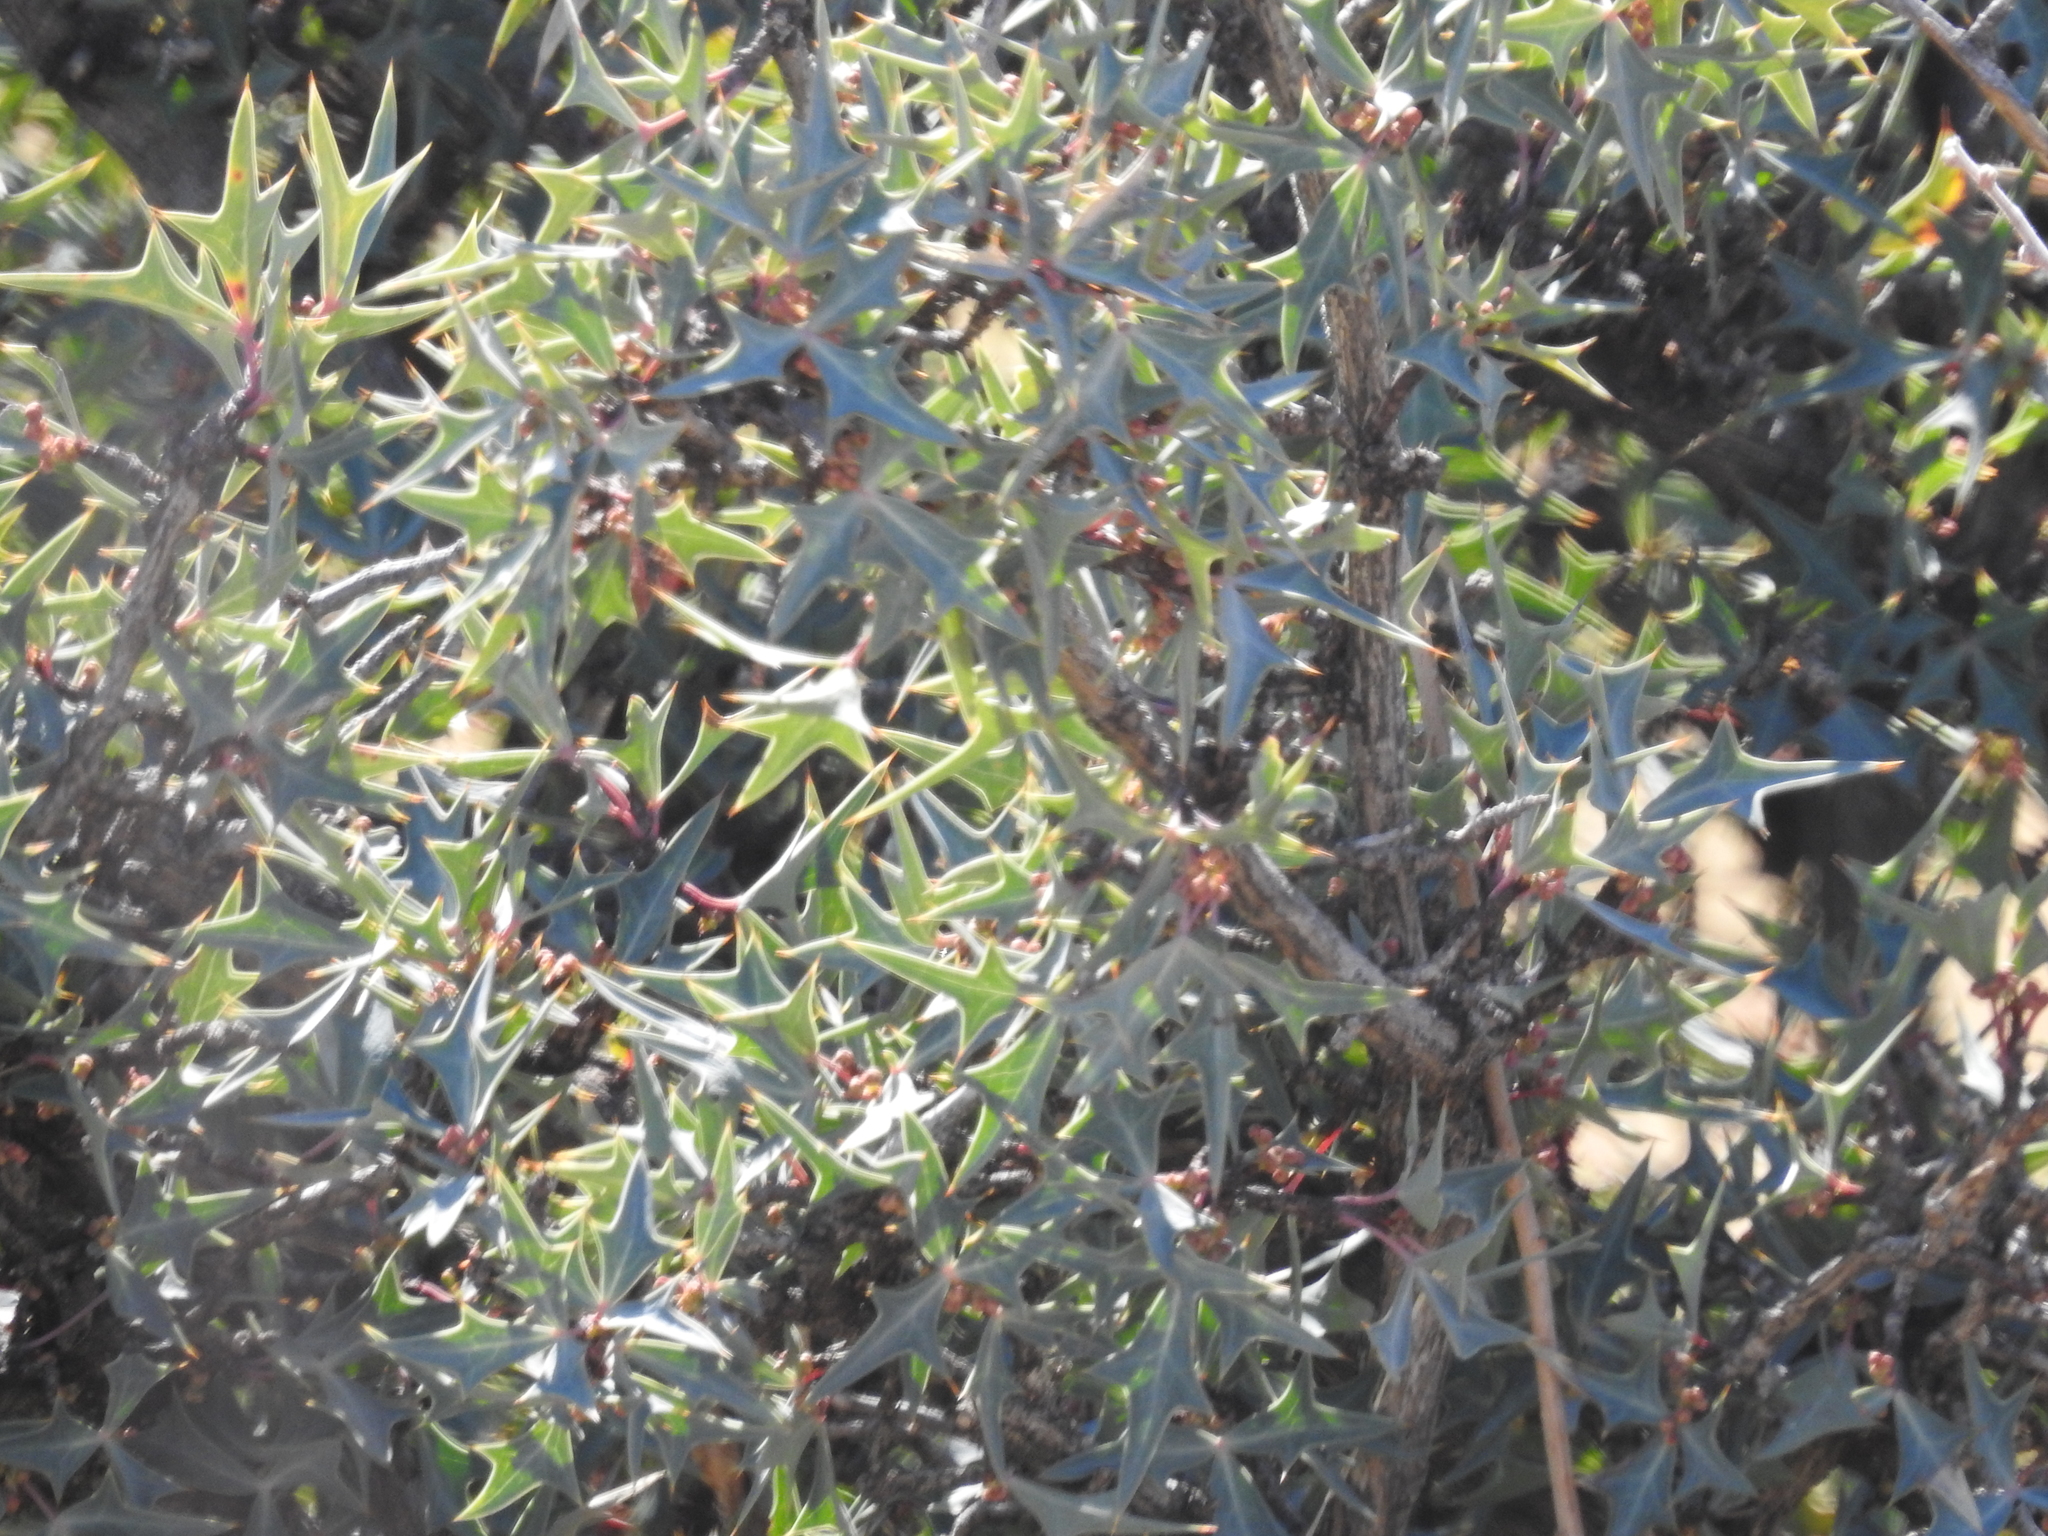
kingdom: Plantae
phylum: Tracheophyta
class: Magnoliopsida
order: Ranunculales
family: Berberidaceae
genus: Alloberberis
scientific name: Alloberberis trifoliolata
